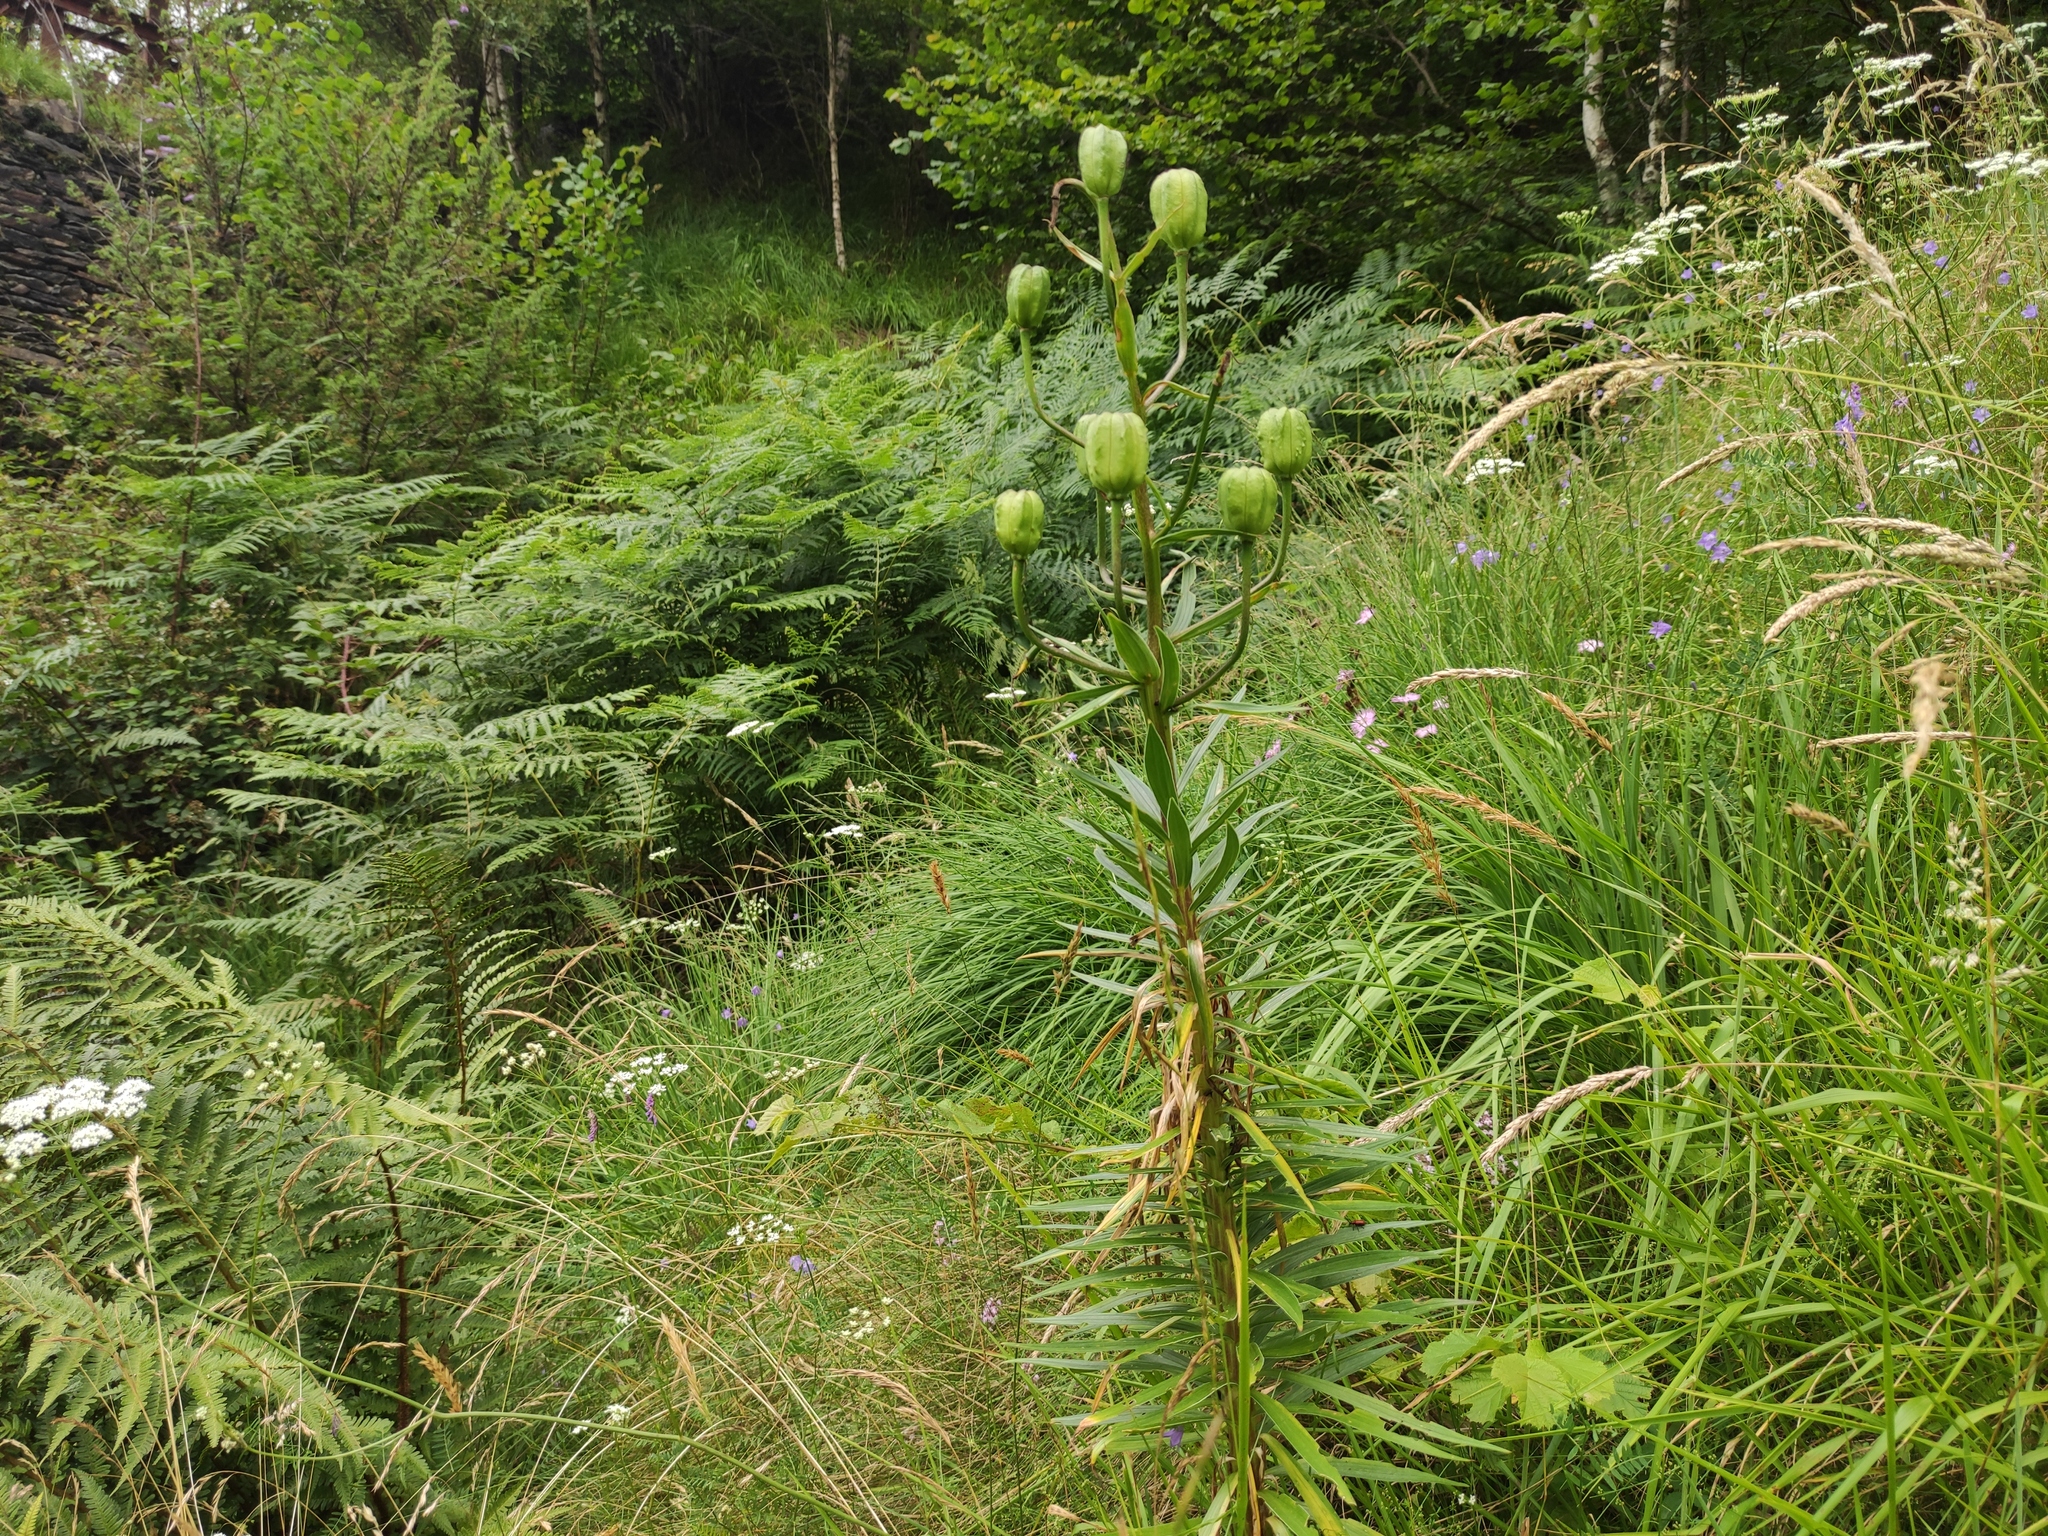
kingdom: Plantae
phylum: Tracheophyta
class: Liliopsida
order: Liliales
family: Liliaceae
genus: Lilium
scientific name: Lilium martagon
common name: Martagon lily
